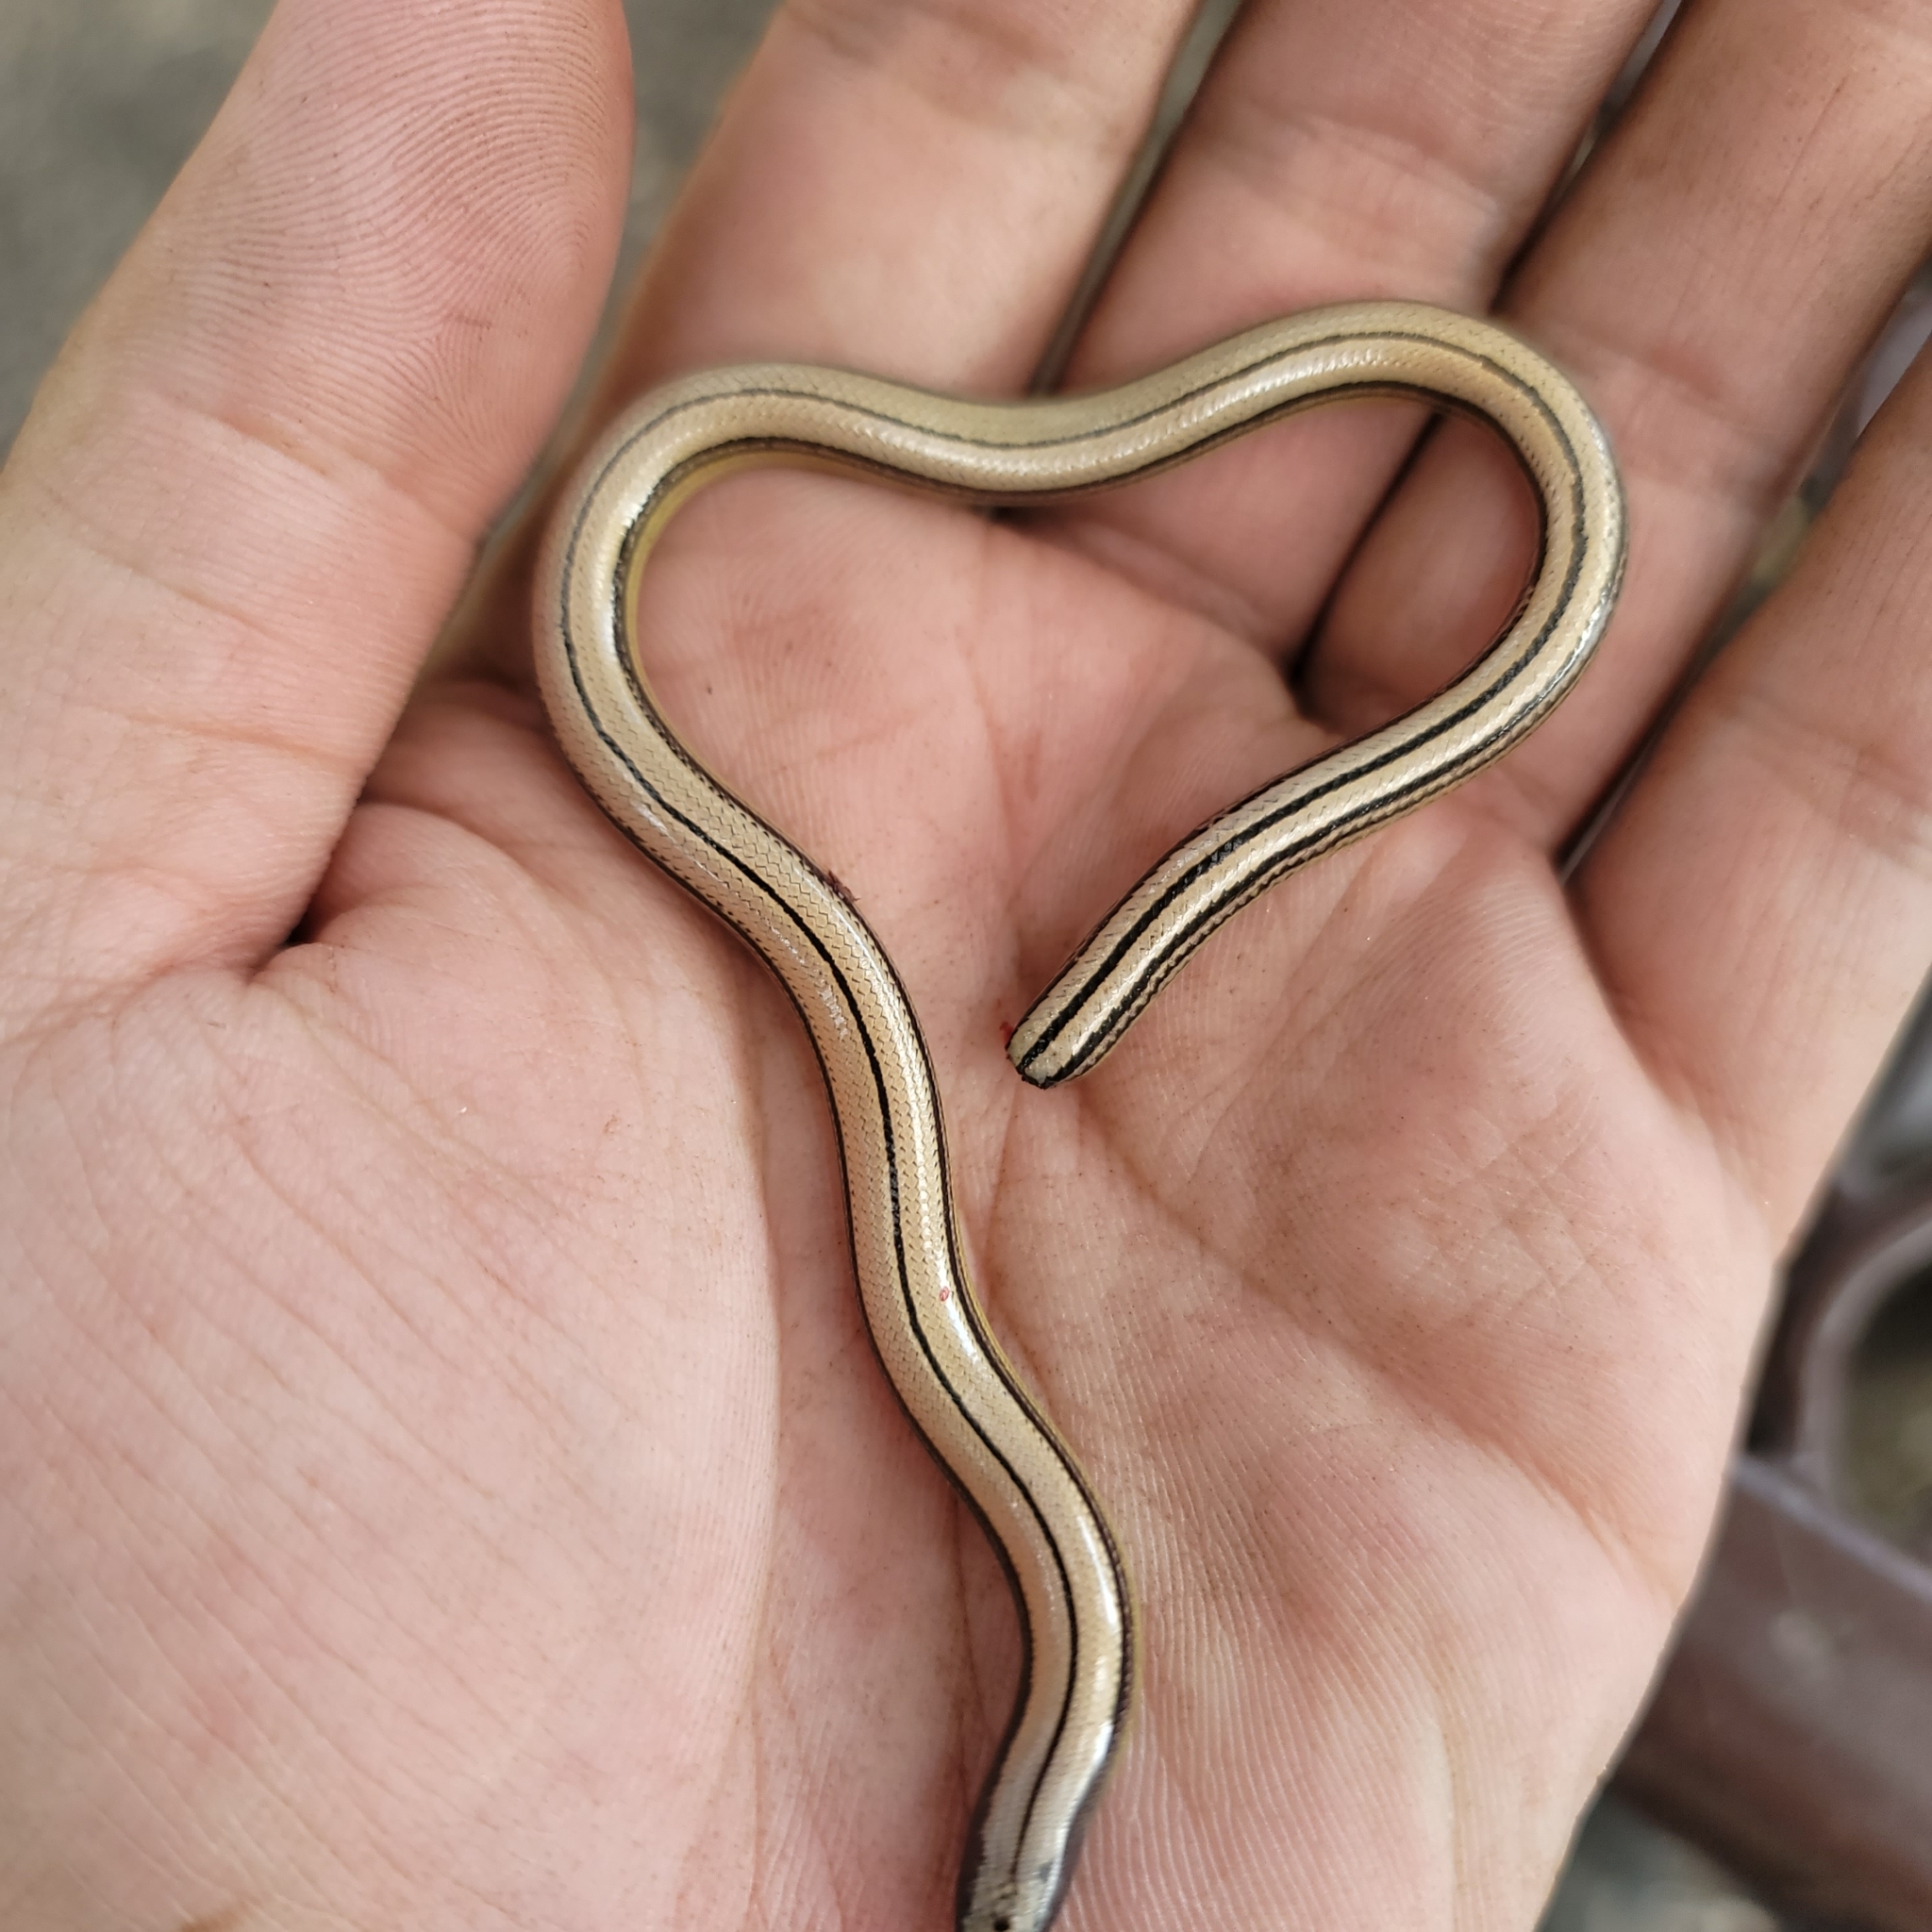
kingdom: Animalia
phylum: Chordata
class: Squamata
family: Anguidae
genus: Anniella
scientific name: Anniella stebbinsi
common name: Southern california legless lizard
